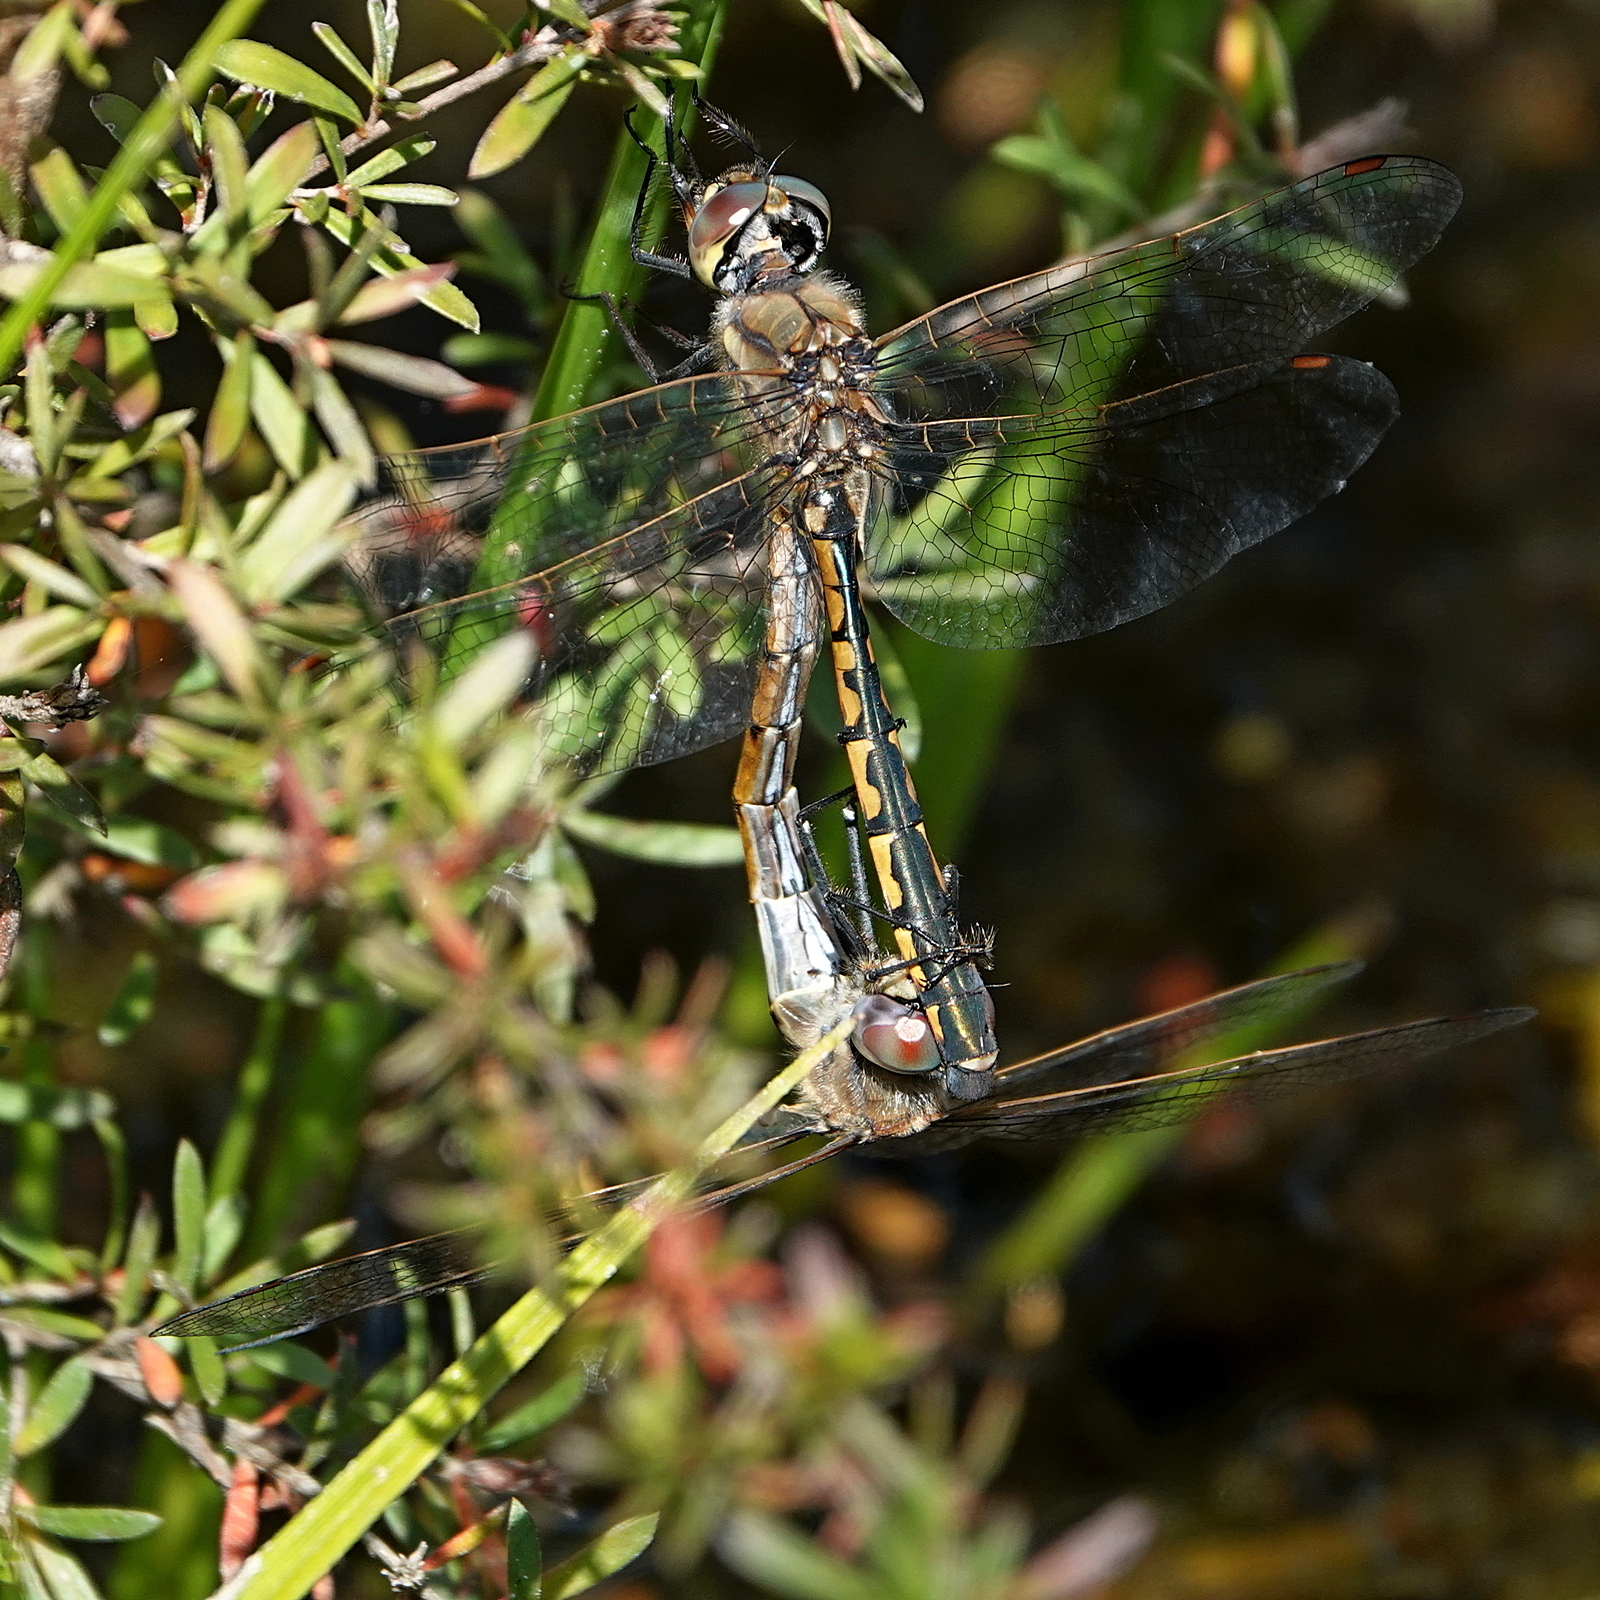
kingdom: Animalia
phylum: Arthropoda
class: Insecta
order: Odonata
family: Corduliidae
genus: Hemicordulia
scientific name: Hemicordulia tau
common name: Tau emerald
